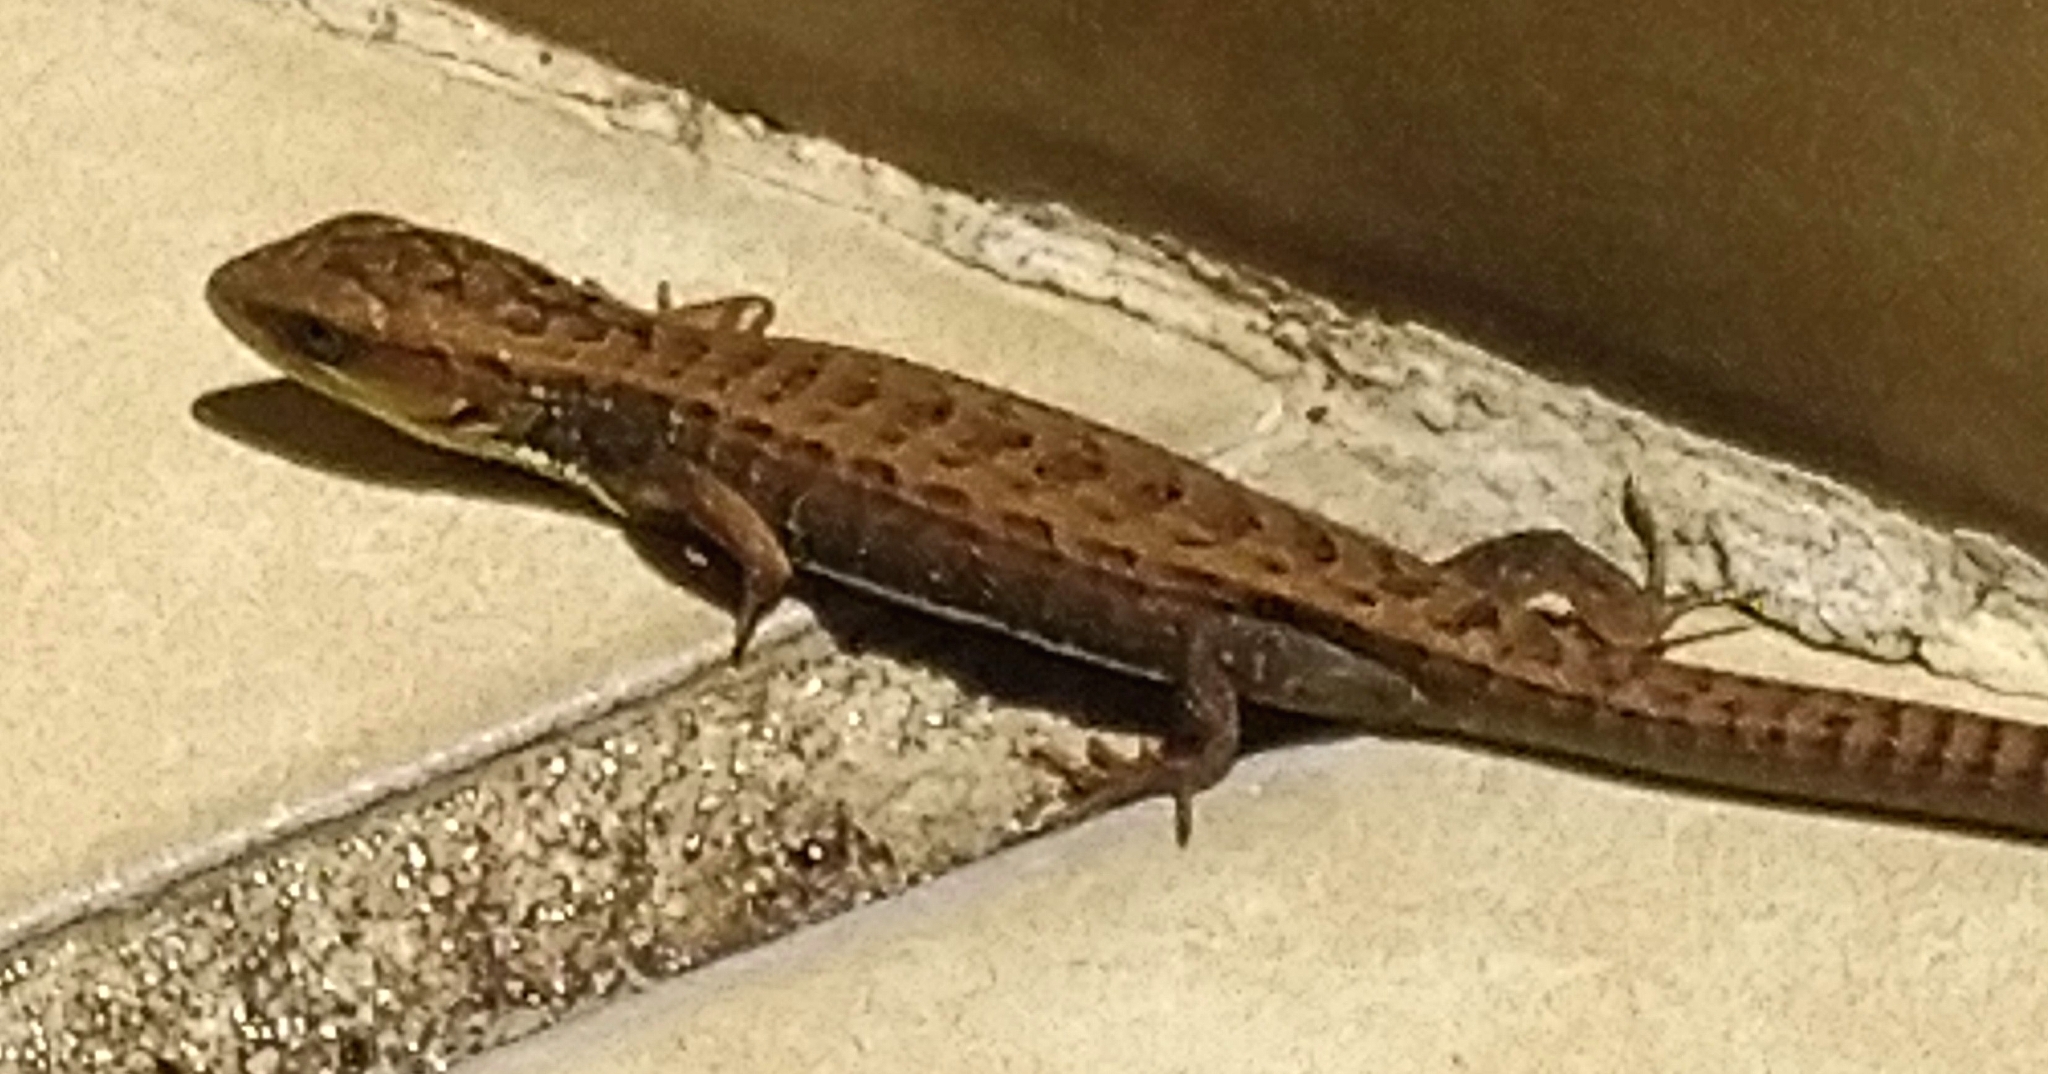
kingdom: Animalia
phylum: Chordata
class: Squamata
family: Anguidae
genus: Barisia
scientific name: Barisia imbricata
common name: Imbricate alligator lizard
